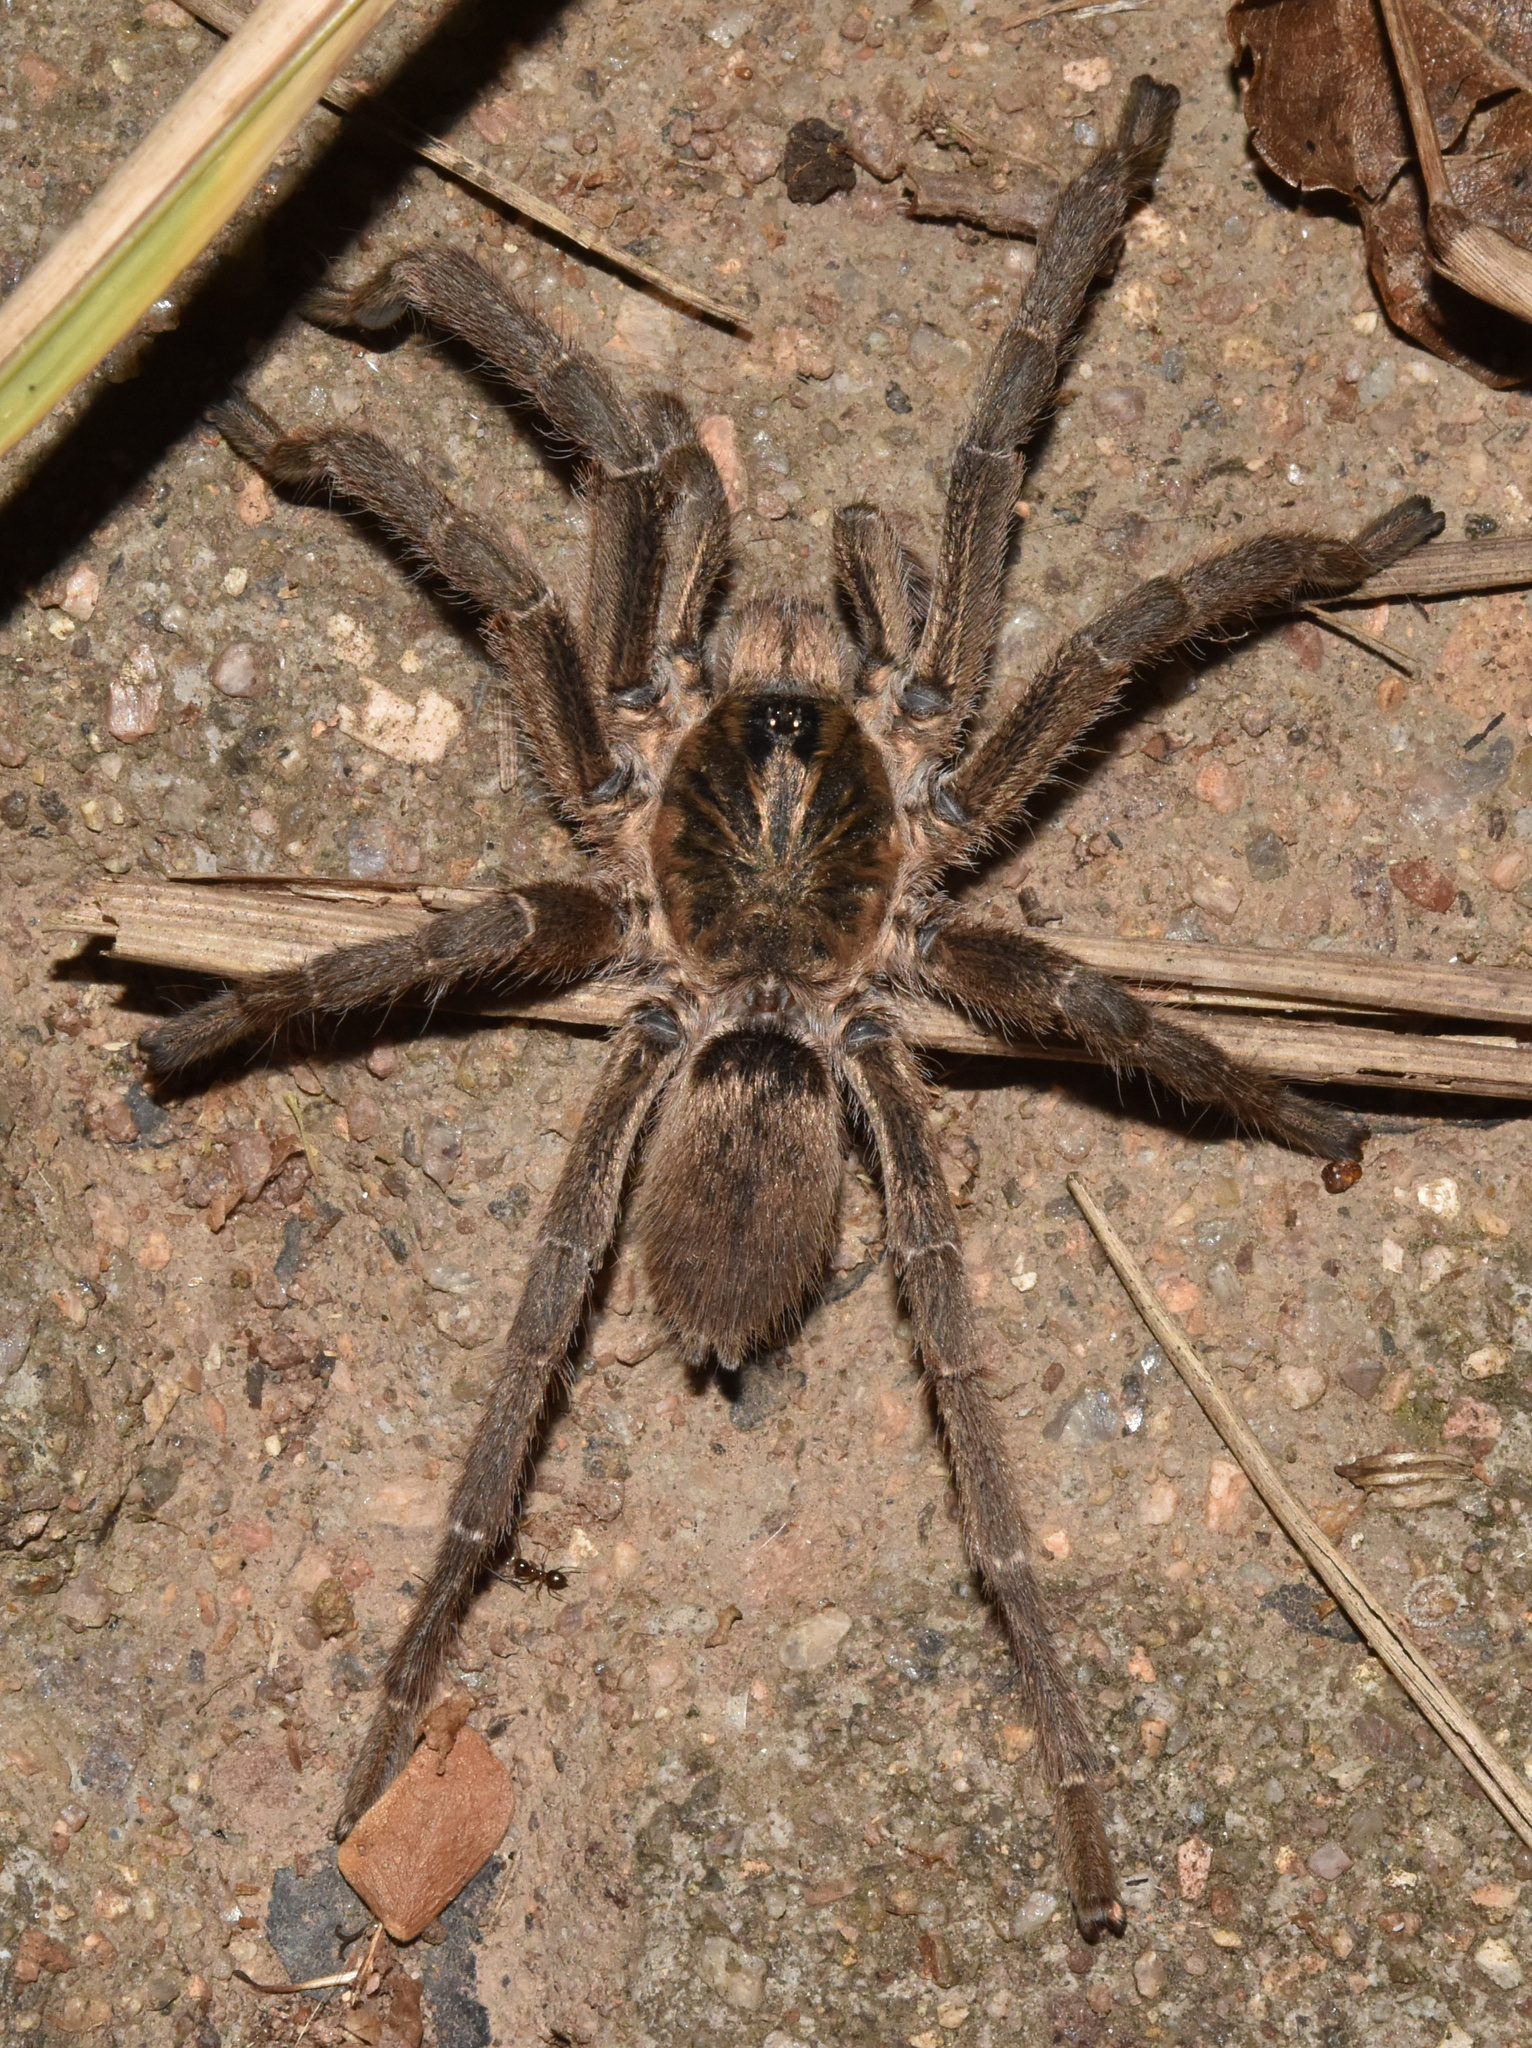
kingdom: Animalia
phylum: Arthropoda
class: Arachnida
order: Araneae
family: Theraphosidae
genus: Harpactira
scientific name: Harpactira curator
